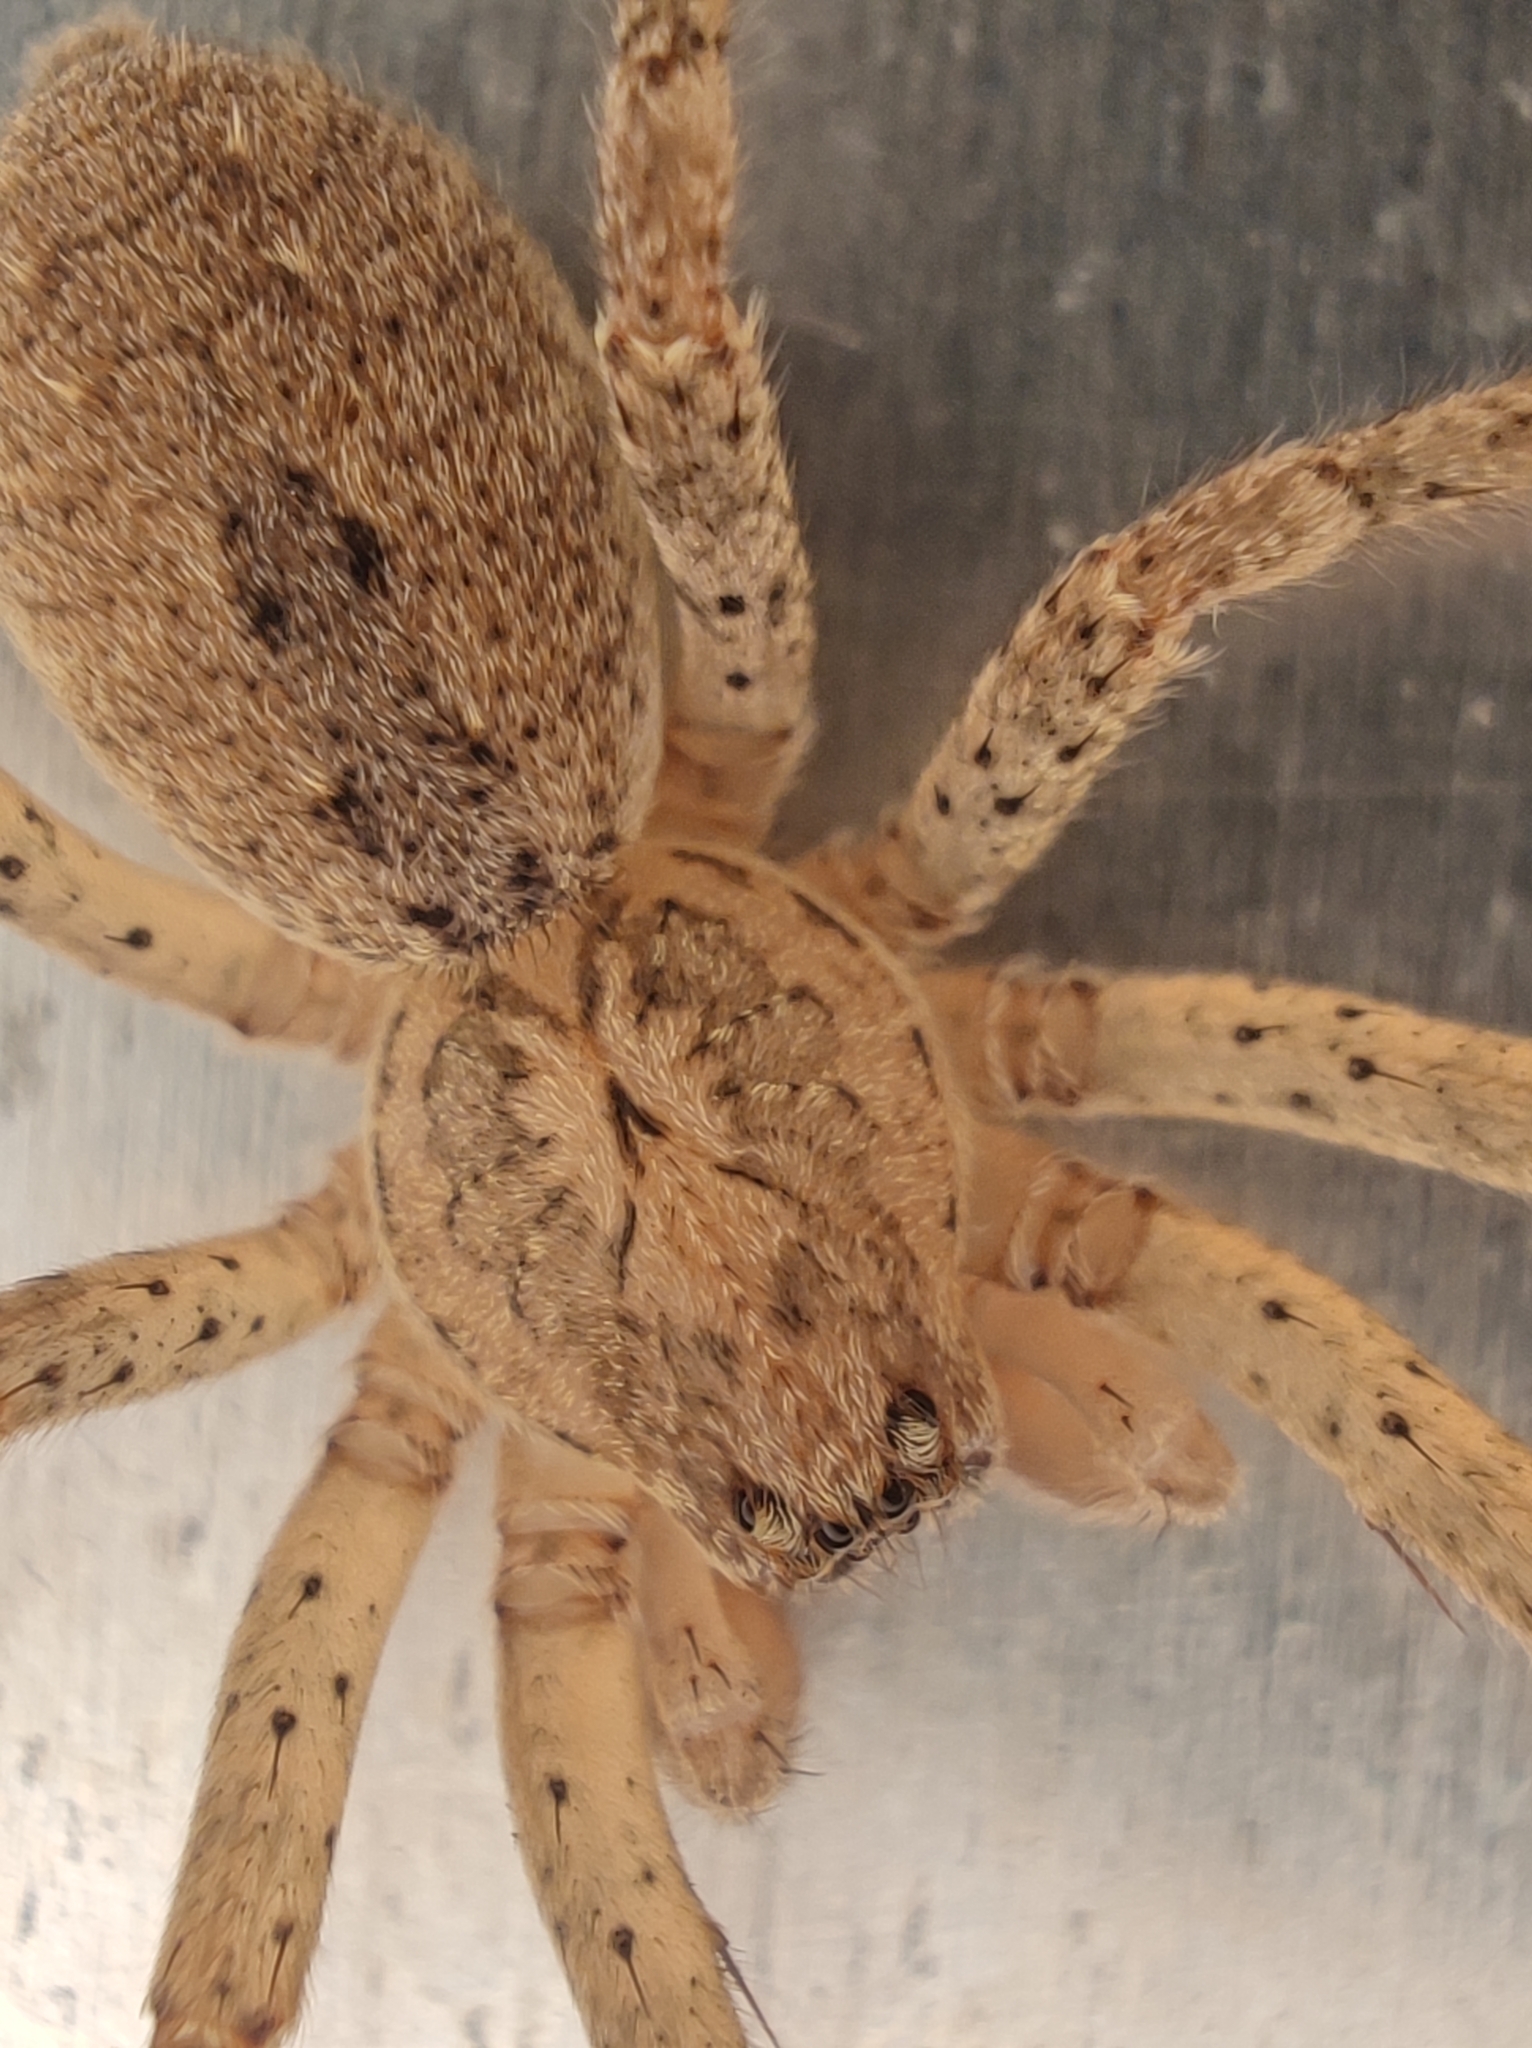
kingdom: Animalia
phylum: Arthropoda
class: Arachnida
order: Araneae
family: Zoropsidae
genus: Zoropsis
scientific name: Zoropsis spinimana
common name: Zoropsid spider
